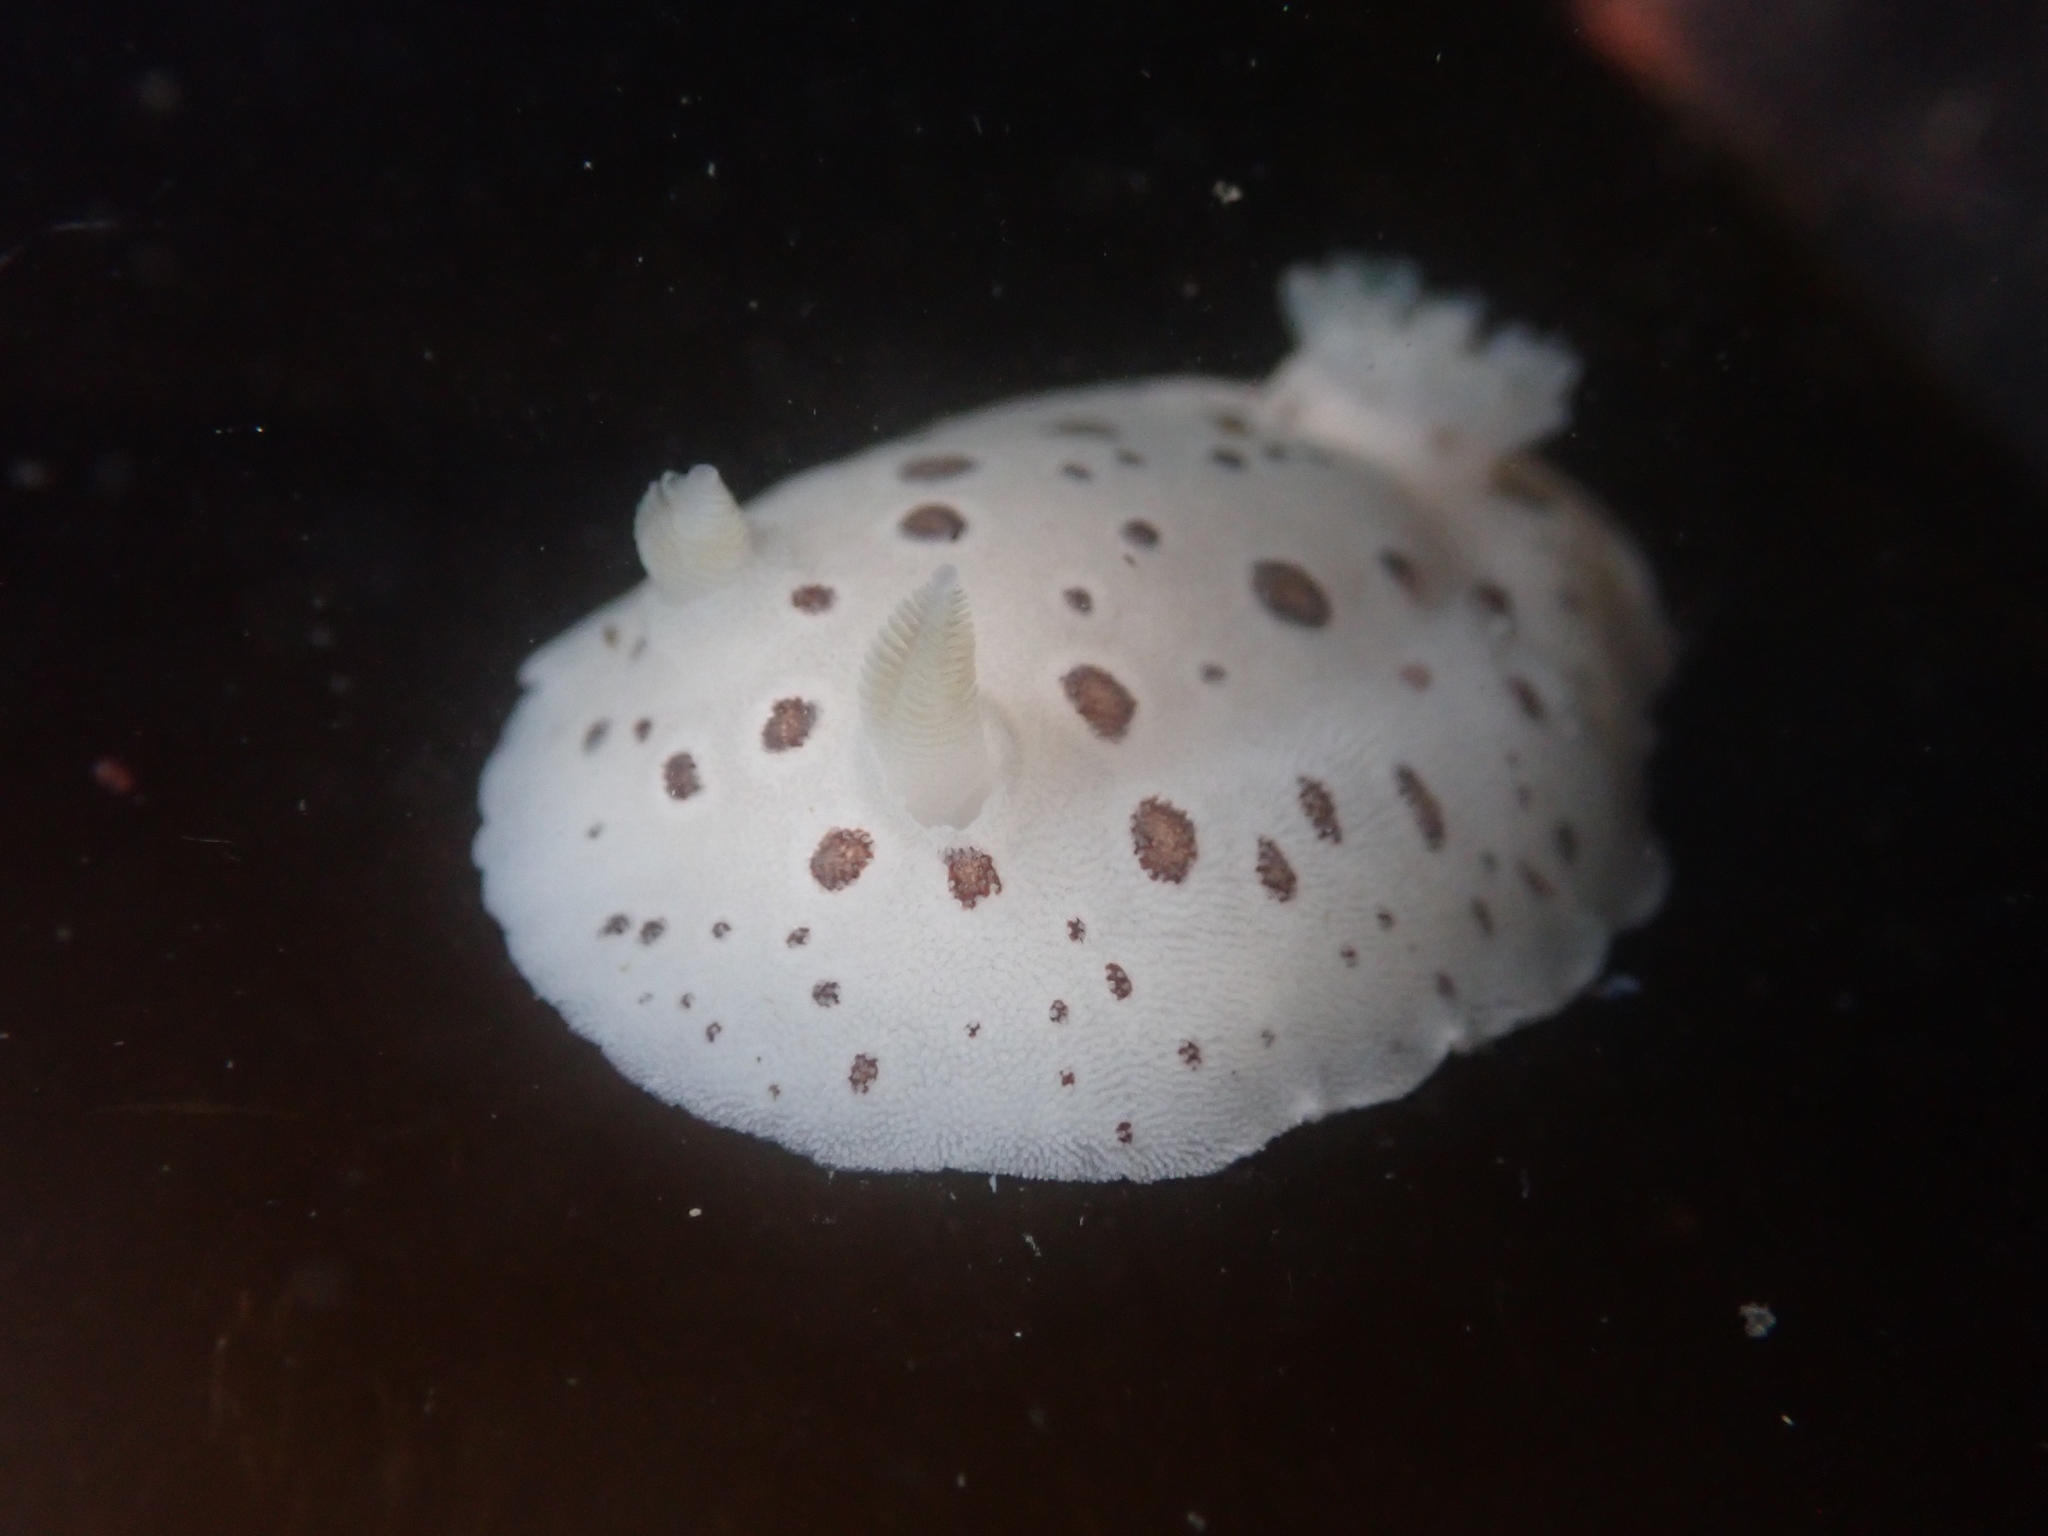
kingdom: Animalia
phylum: Mollusca
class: Gastropoda
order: Nudibranchia
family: Discodorididae
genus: Diaulula
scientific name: Diaulula odonoghuei
